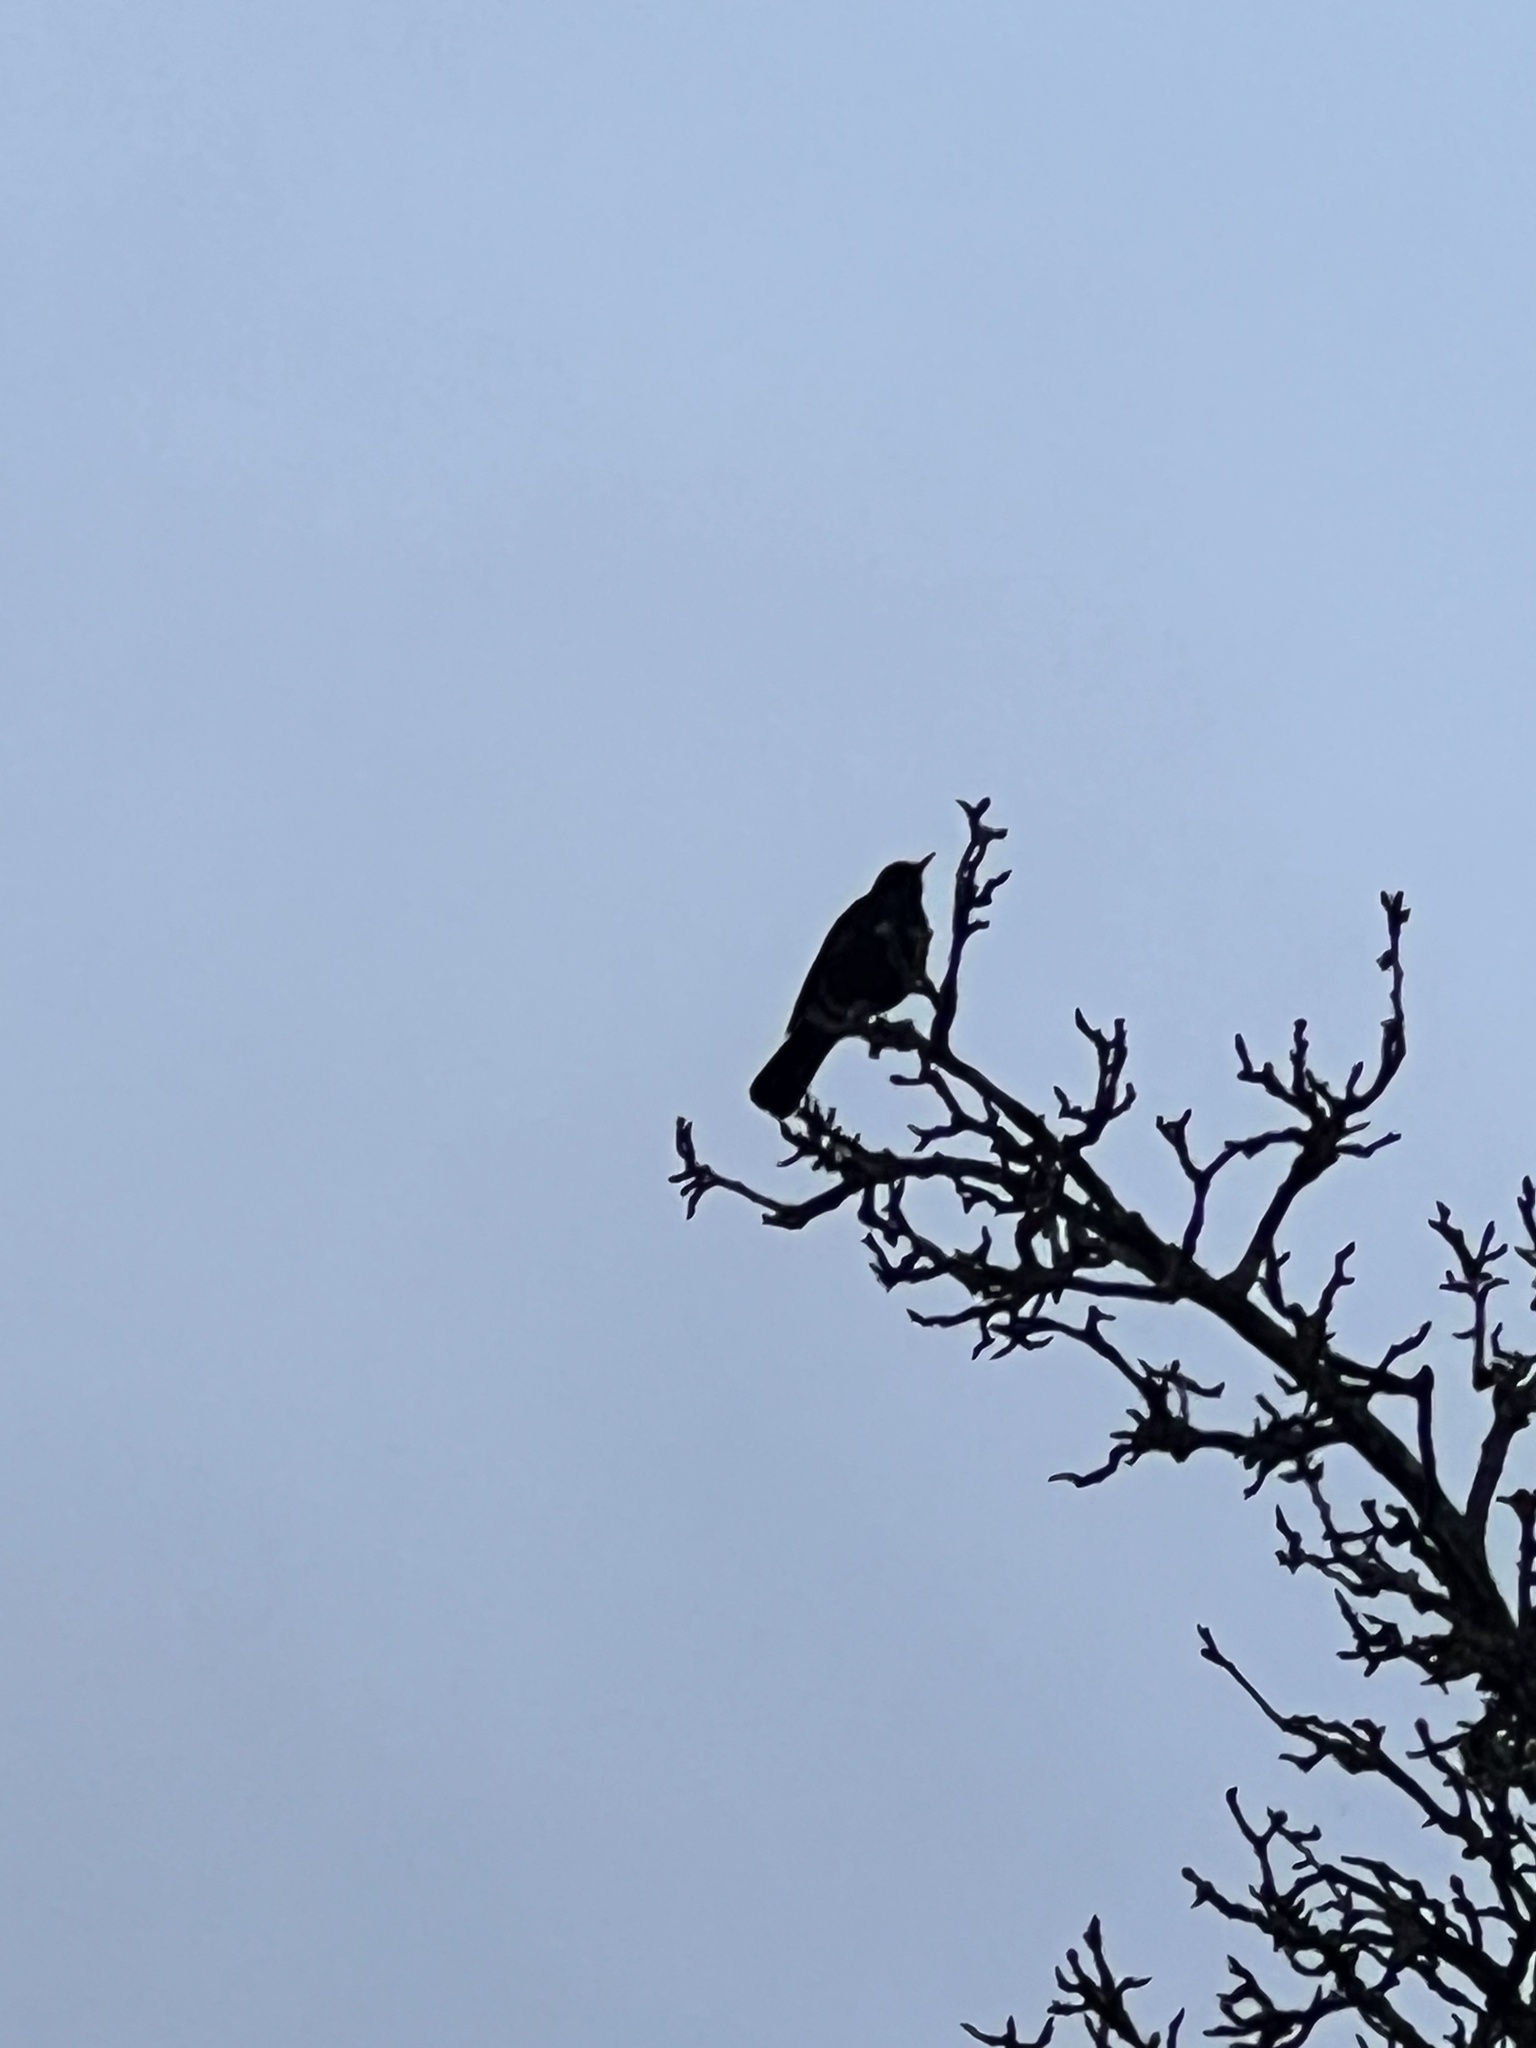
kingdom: Animalia
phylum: Chordata
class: Aves
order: Passeriformes
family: Turdidae
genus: Turdus
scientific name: Turdus merula
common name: Common blackbird
